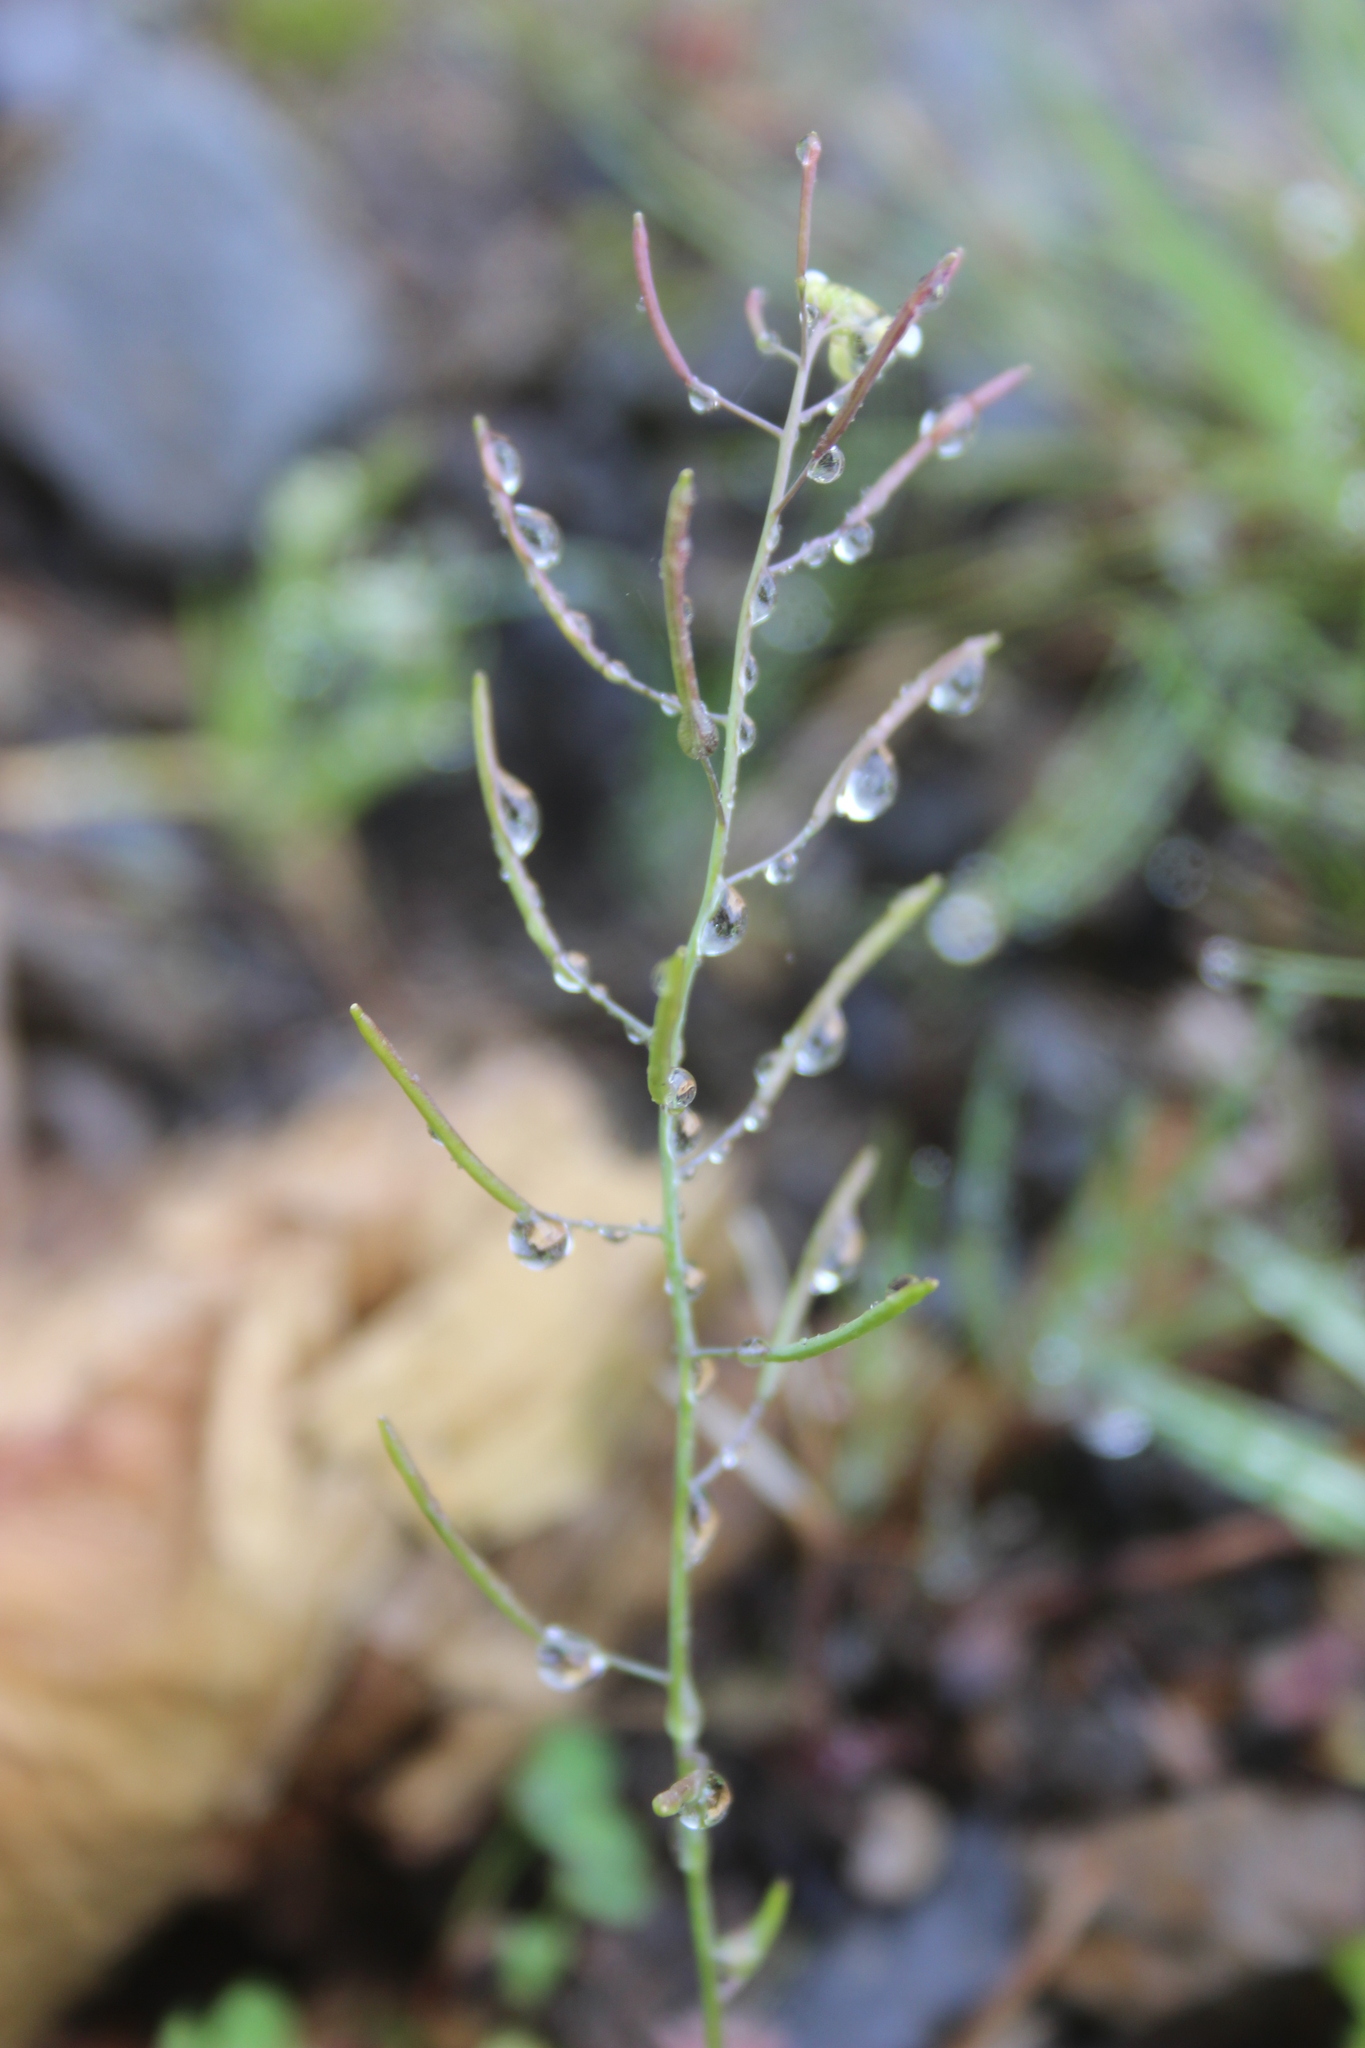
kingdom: Plantae
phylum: Tracheophyta
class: Magnoliopsida
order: Brassicales
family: Brassicaceae
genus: Arabidopsis
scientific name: Arabidopsis thaliana
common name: Thale cress
